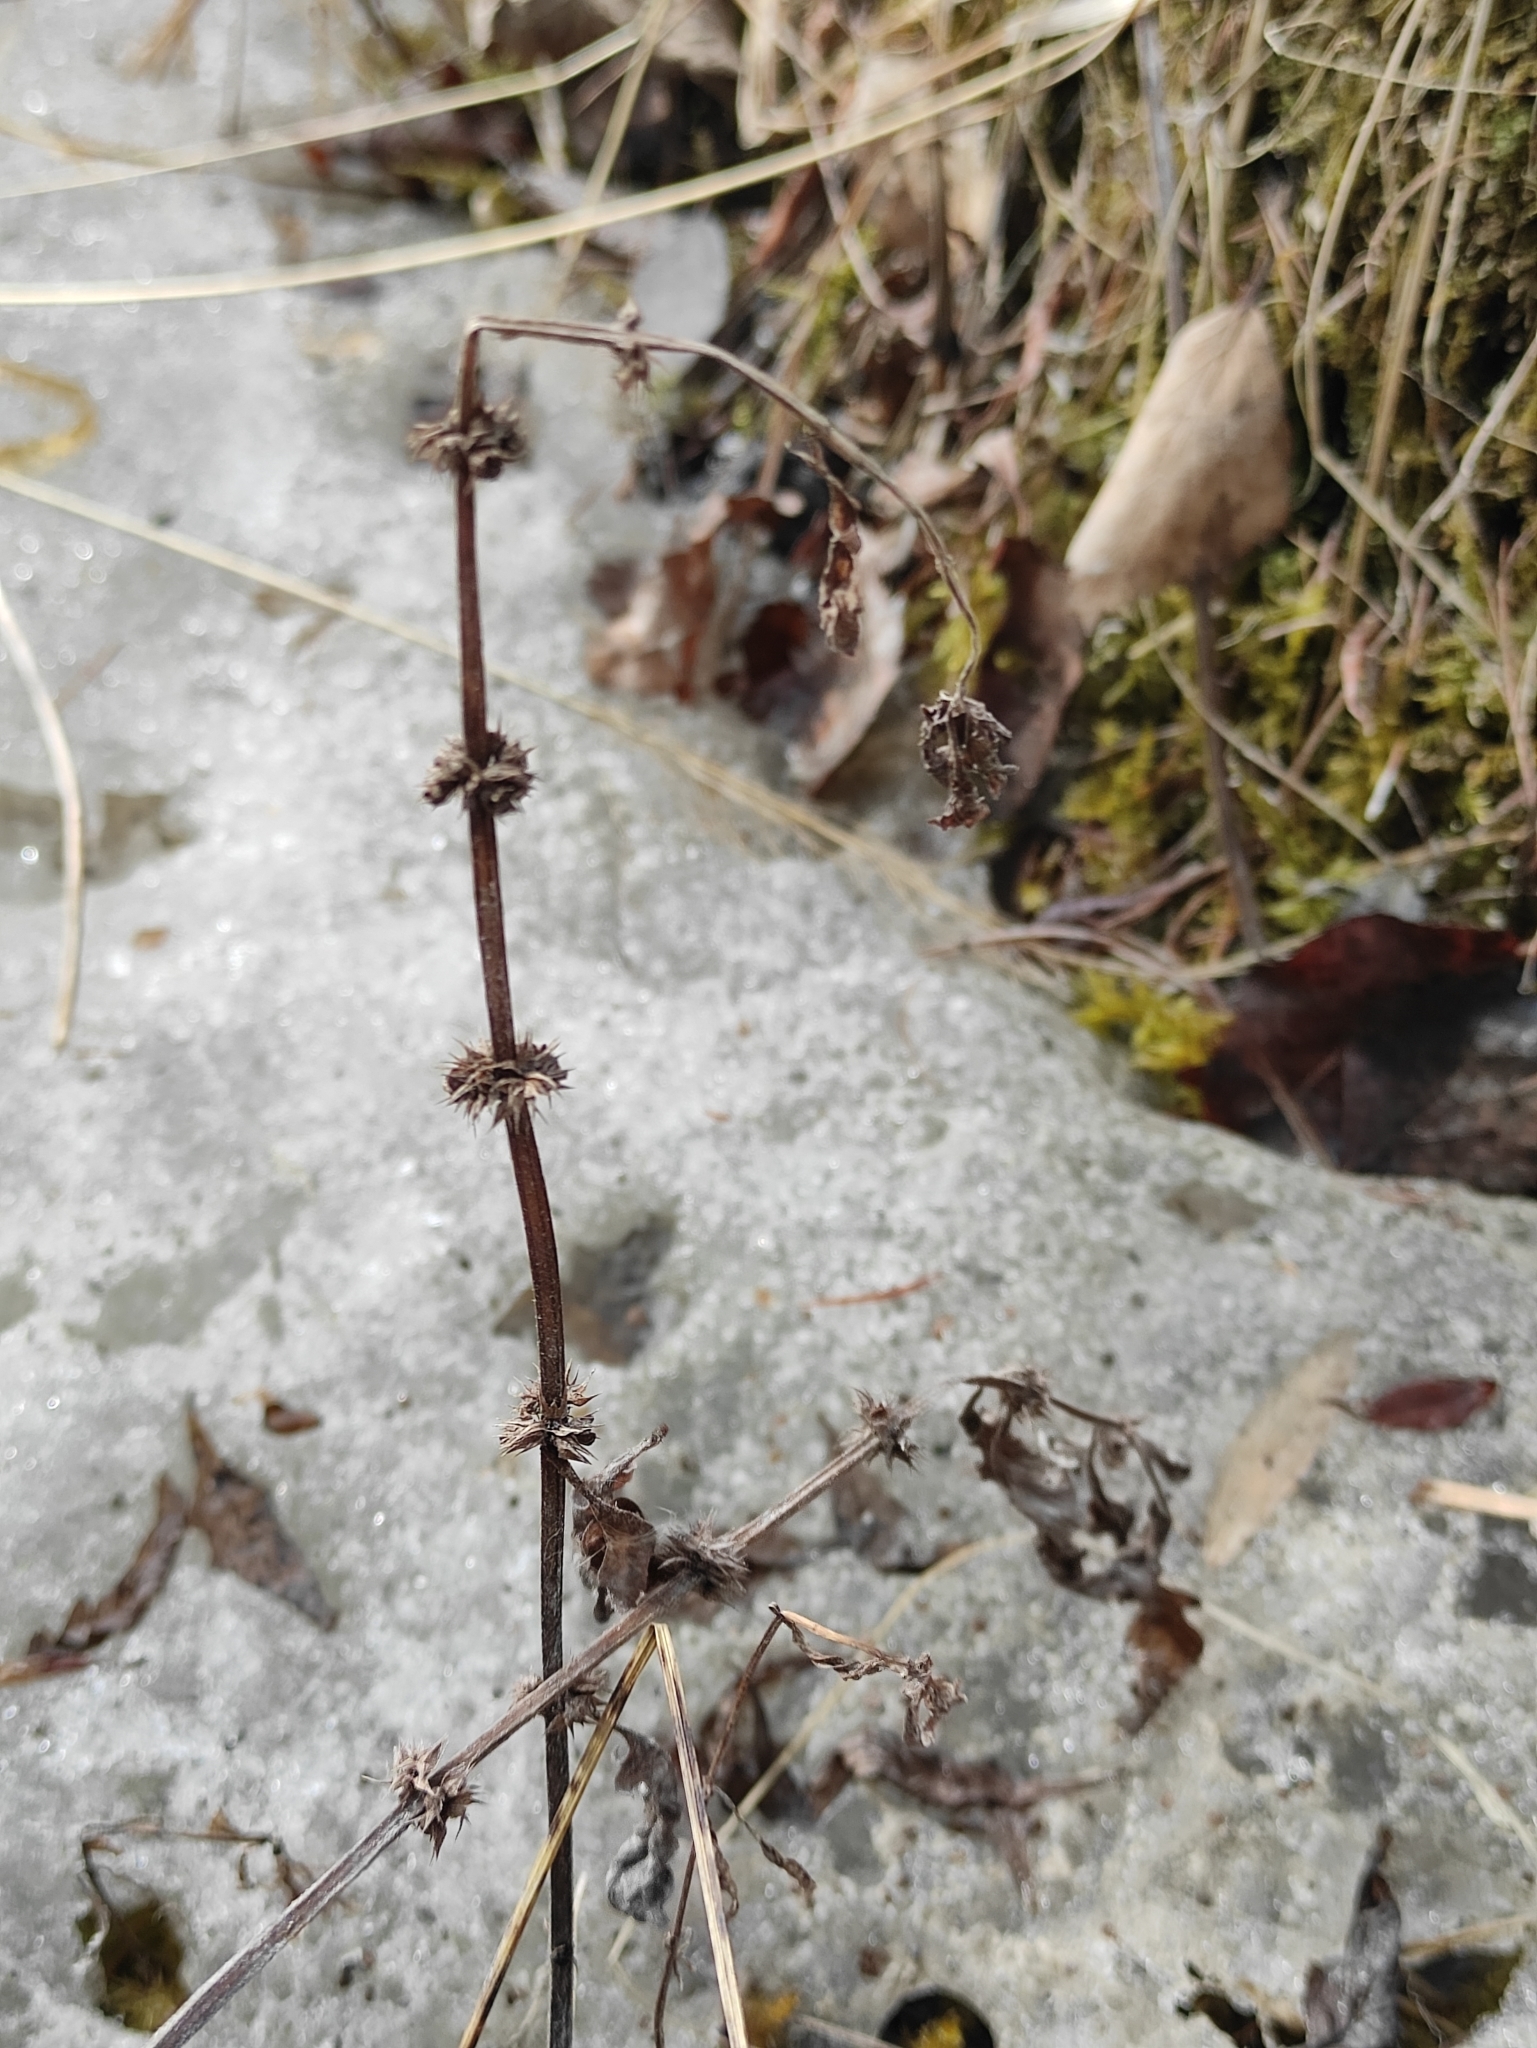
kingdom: Plantae
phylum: Tracheophyta
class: Magnoliopsida
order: Lamiales
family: Lamiaceae
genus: Lycopus
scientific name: Lycopus europaeus
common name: European bugleweed
